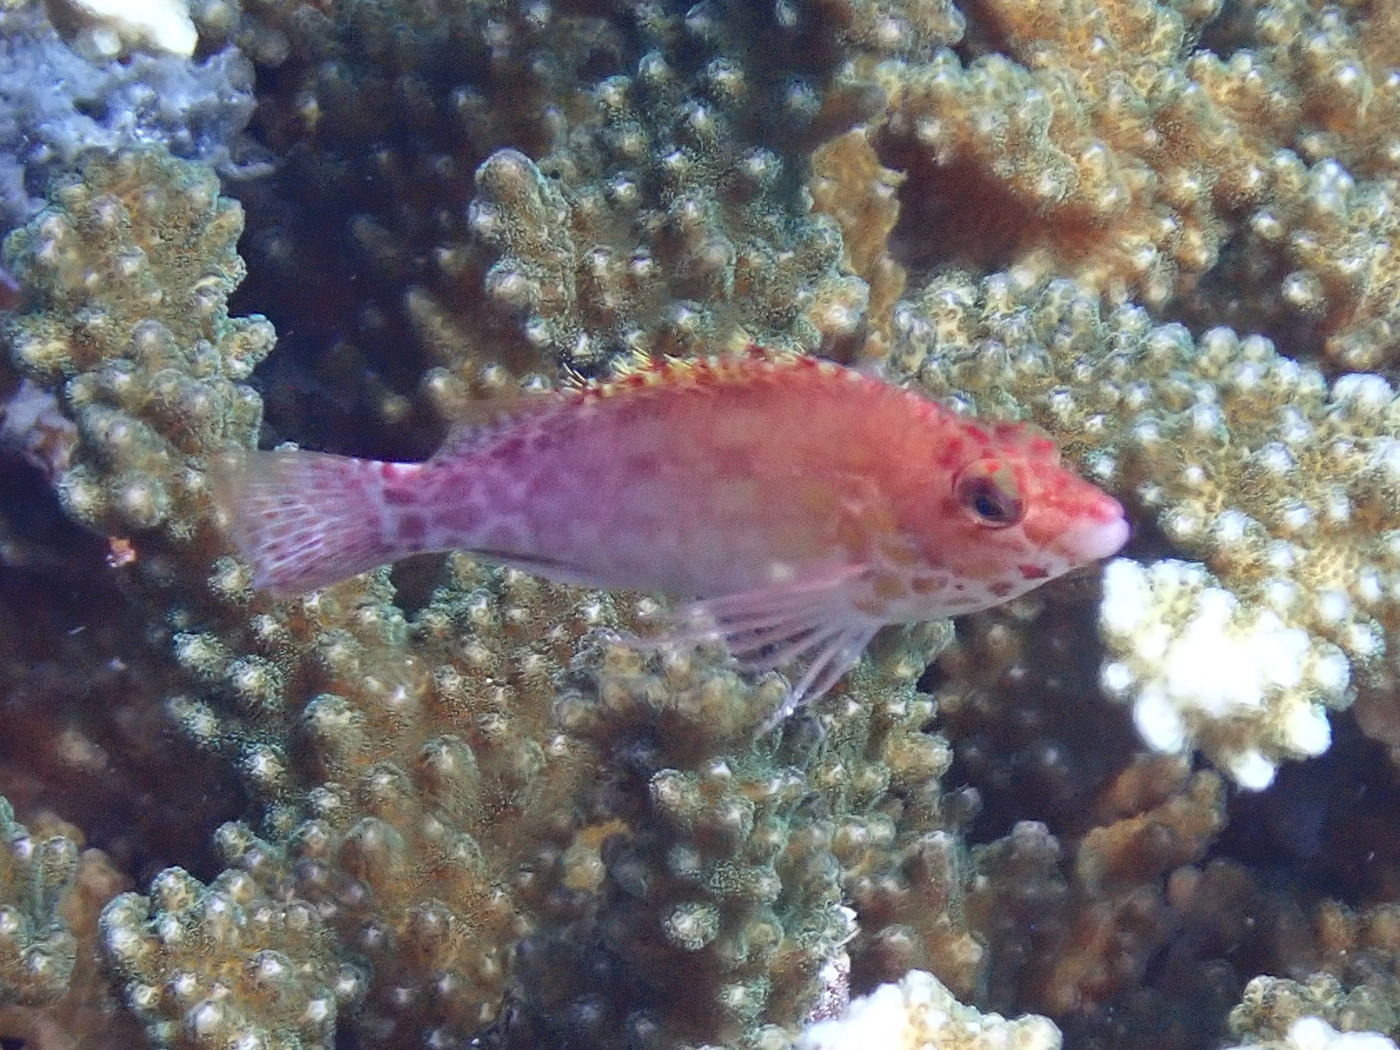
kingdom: Animalia
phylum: Chordata
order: Perciformes
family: Cirrhitidae
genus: Cirrhitichthys
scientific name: Cirrhitichthys oxycephalus
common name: Spotted hawkfish
